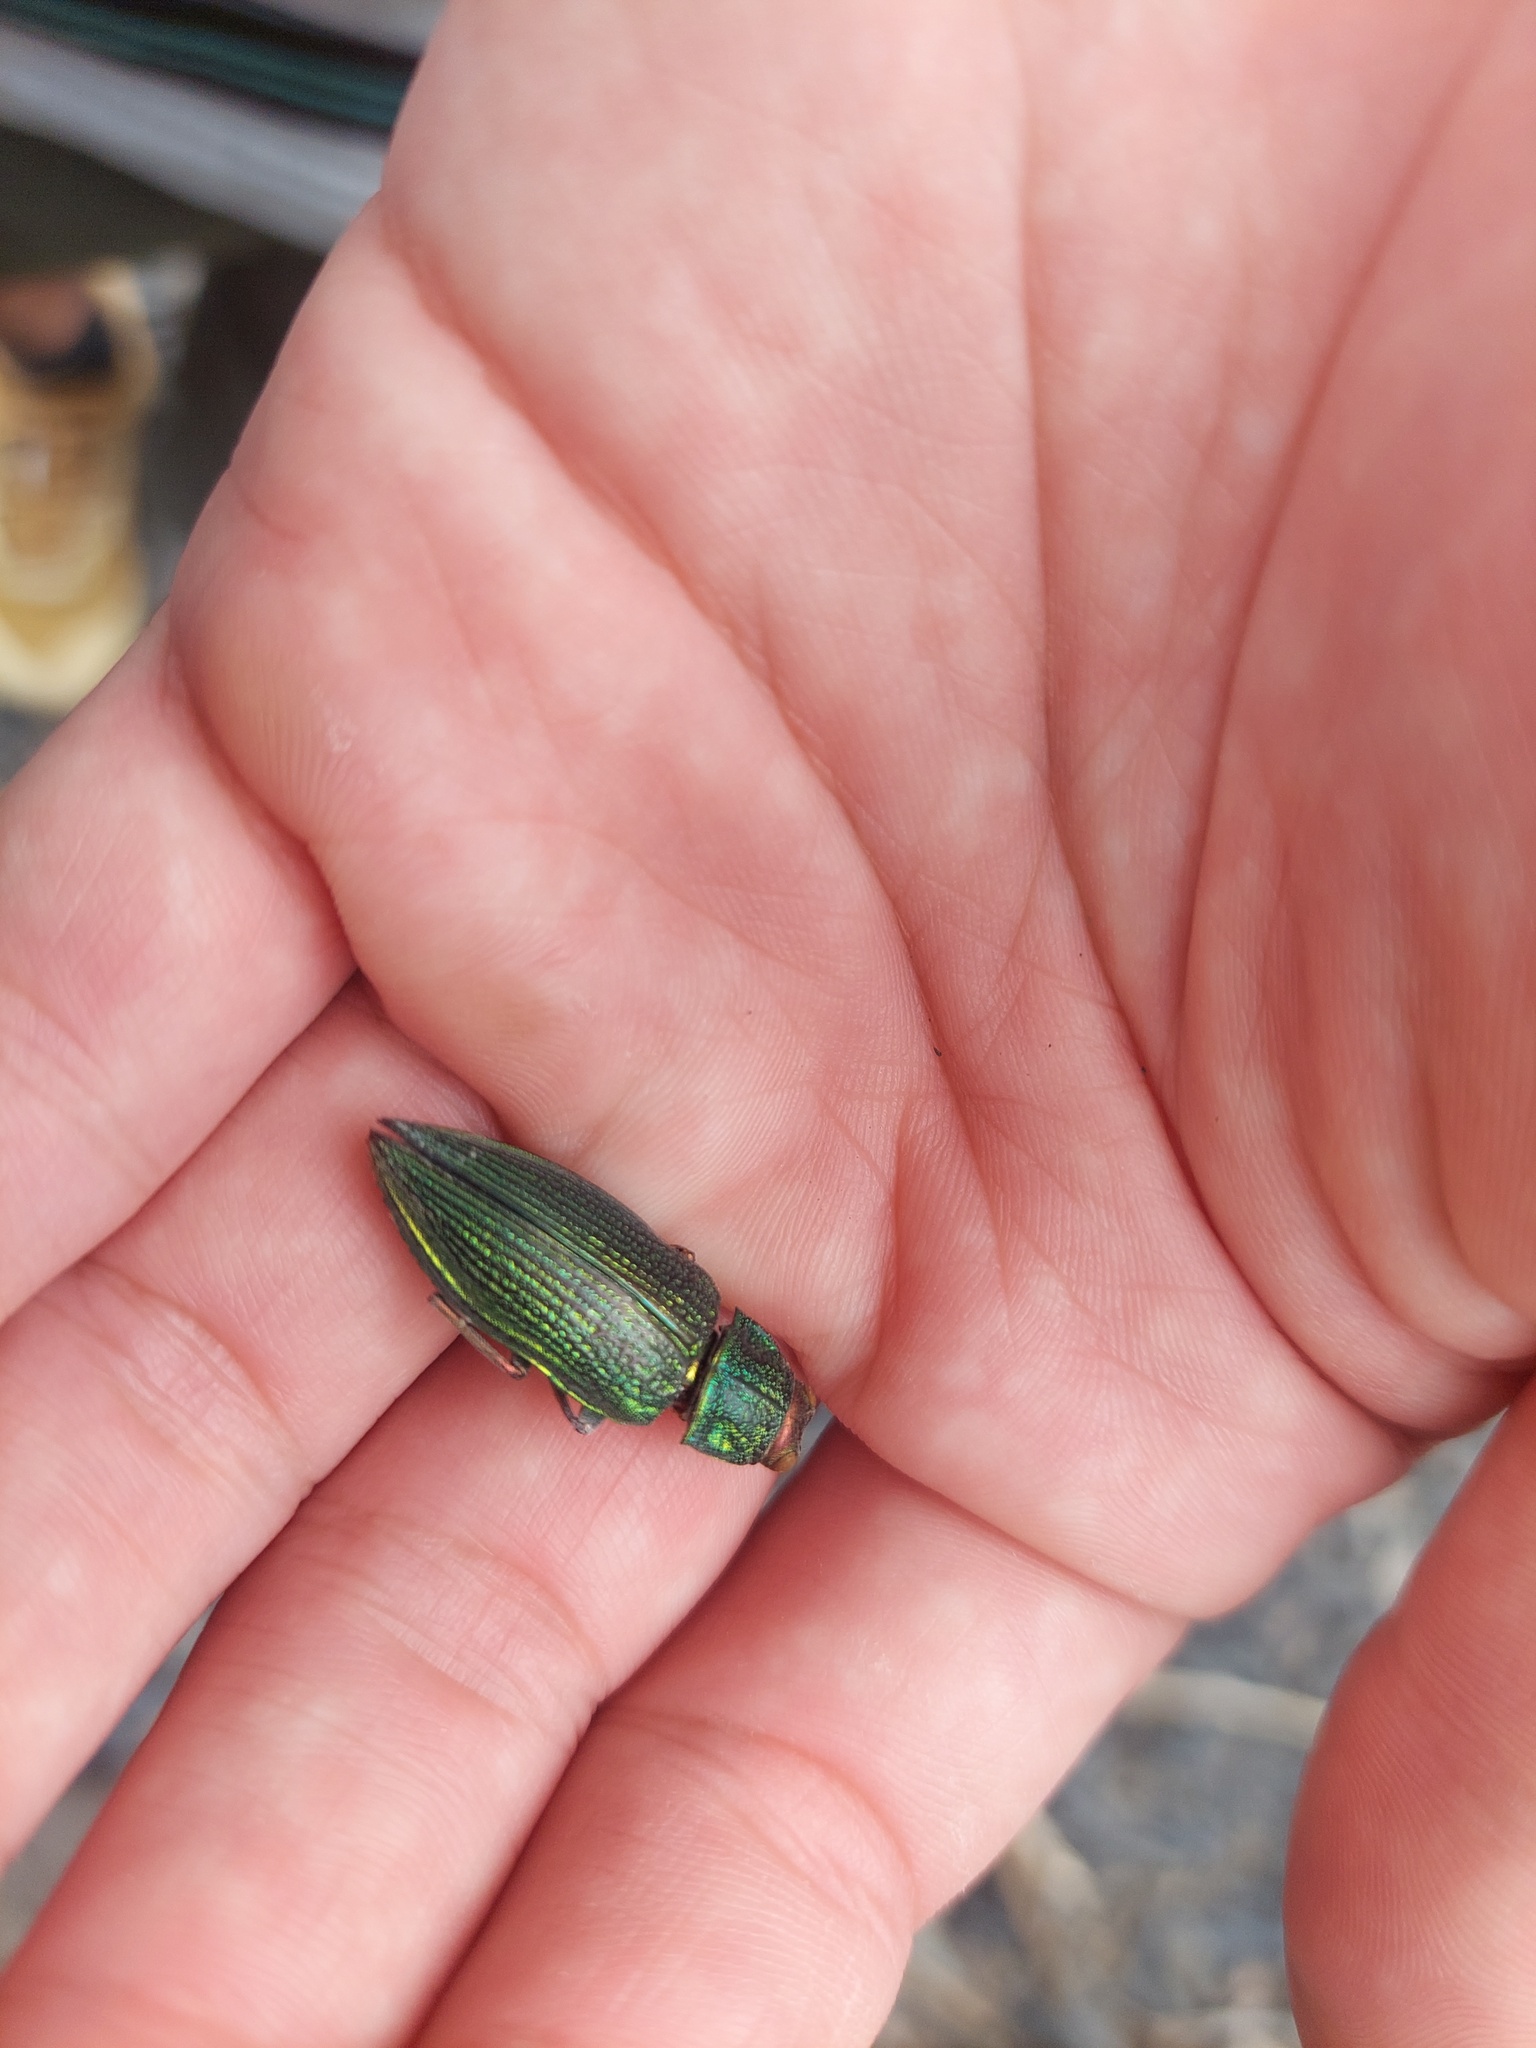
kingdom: Animalia
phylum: Arthropoda
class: Insecta
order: Coleoptera
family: Buprestidae
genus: Chrysodema
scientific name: Chrysodema dalmanni
